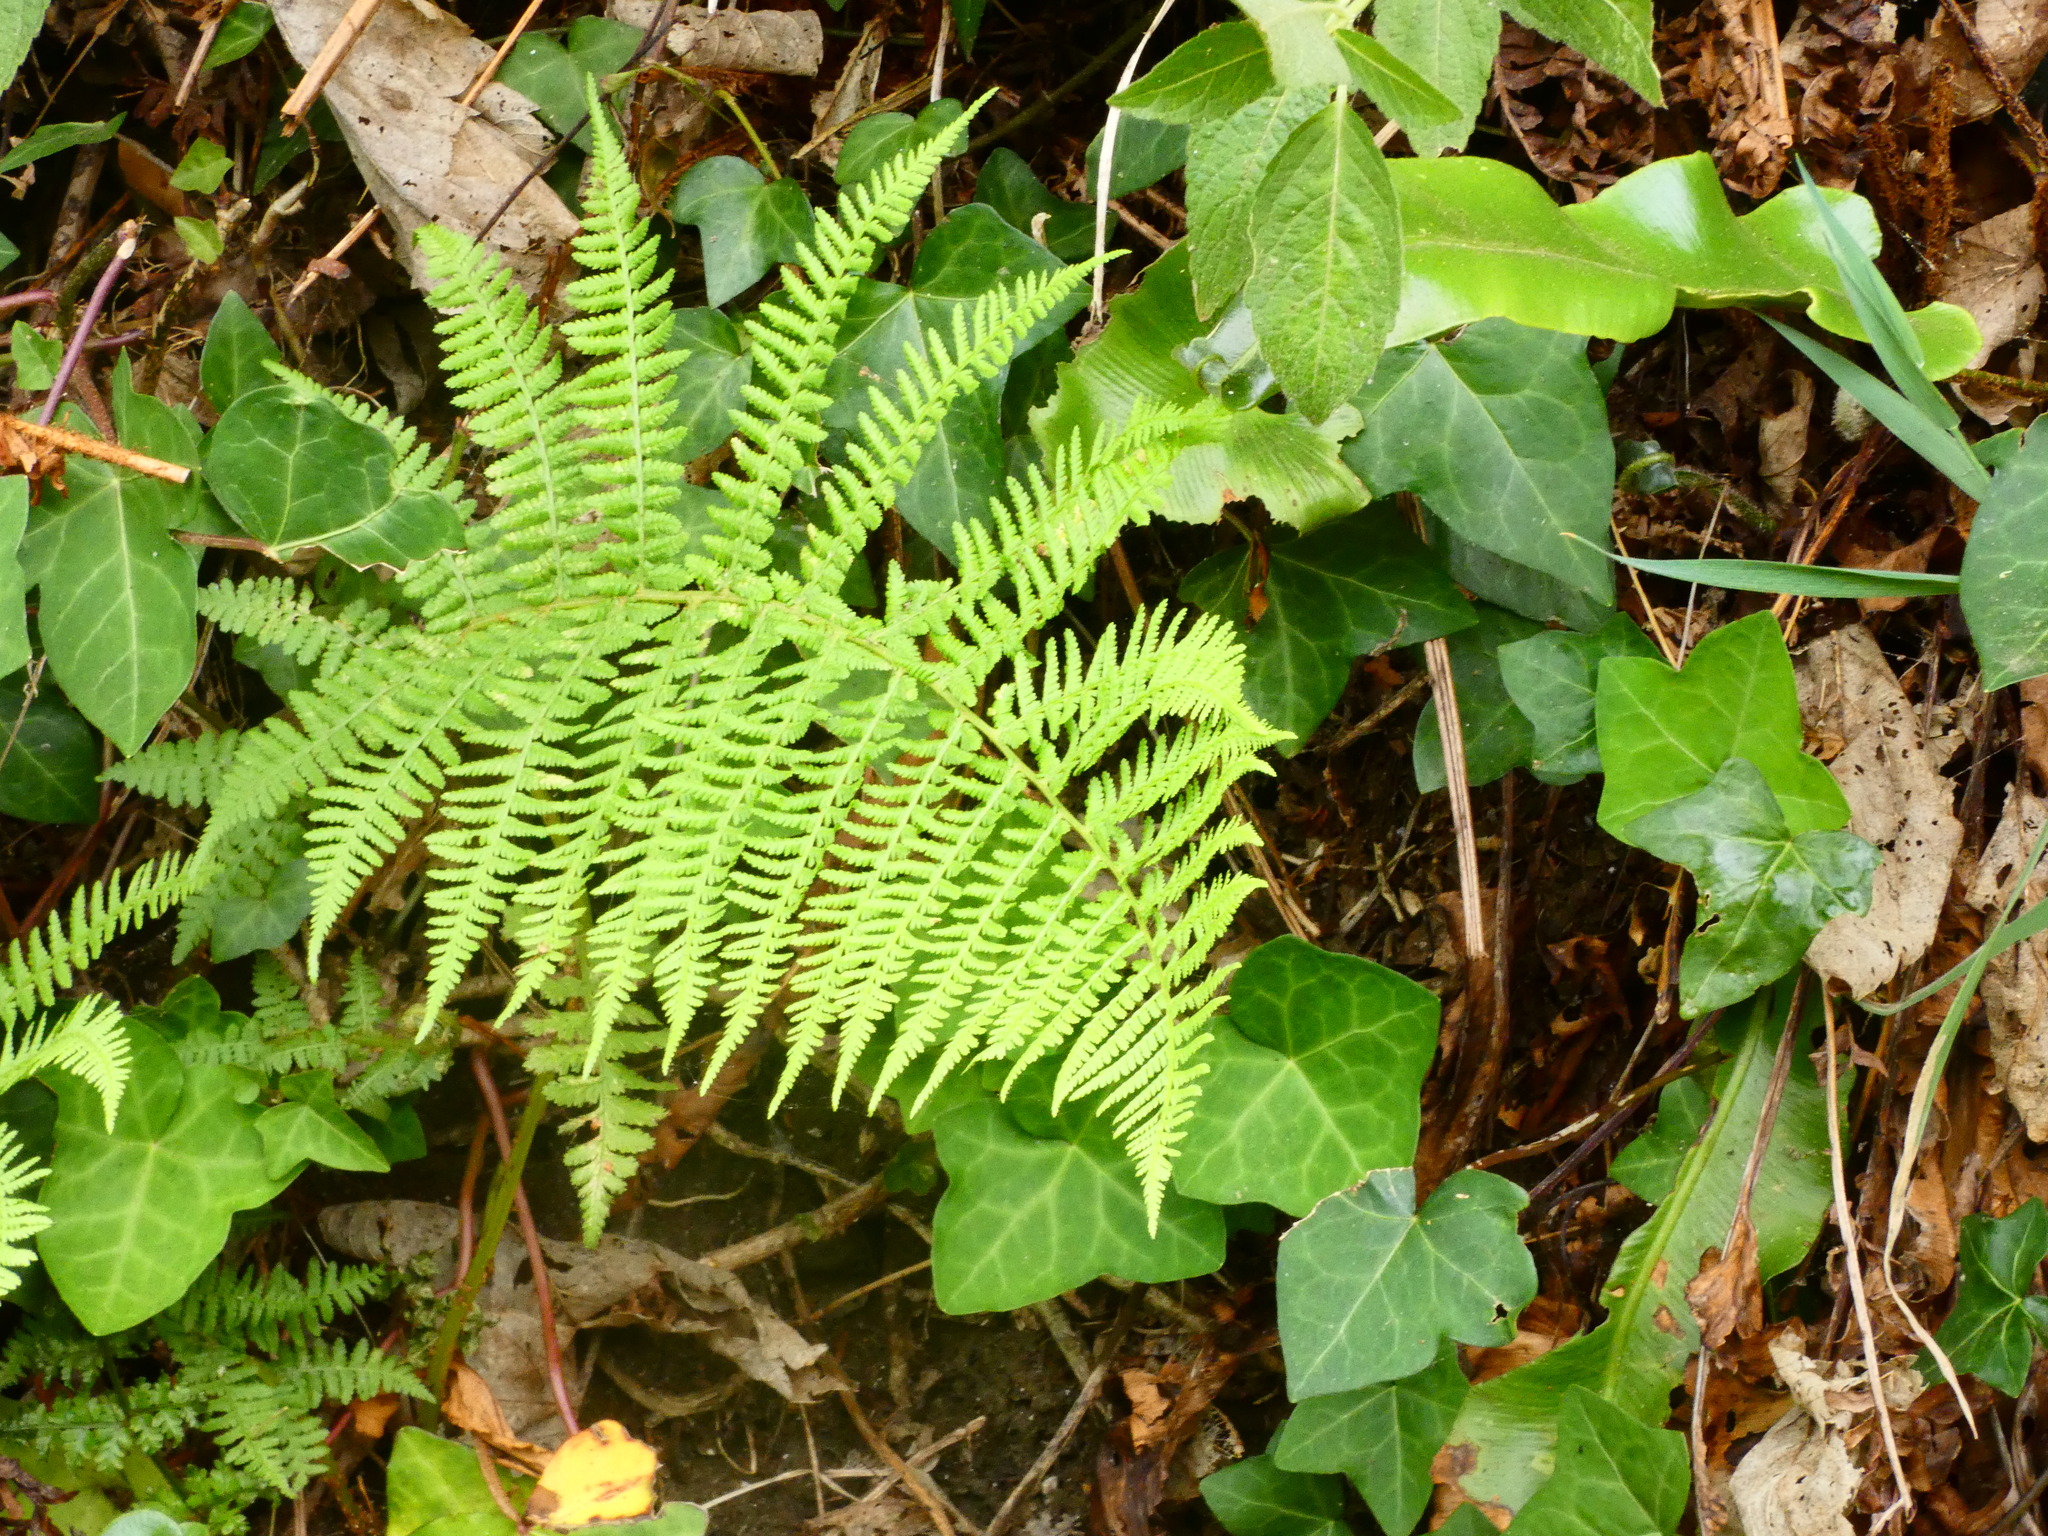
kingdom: Plantae
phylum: Tracheophyta
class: Polypodiopsida
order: Polypodiales
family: Athyriaceae
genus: Athyrium
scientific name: Athyrium filix-femina
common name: Lady fern
